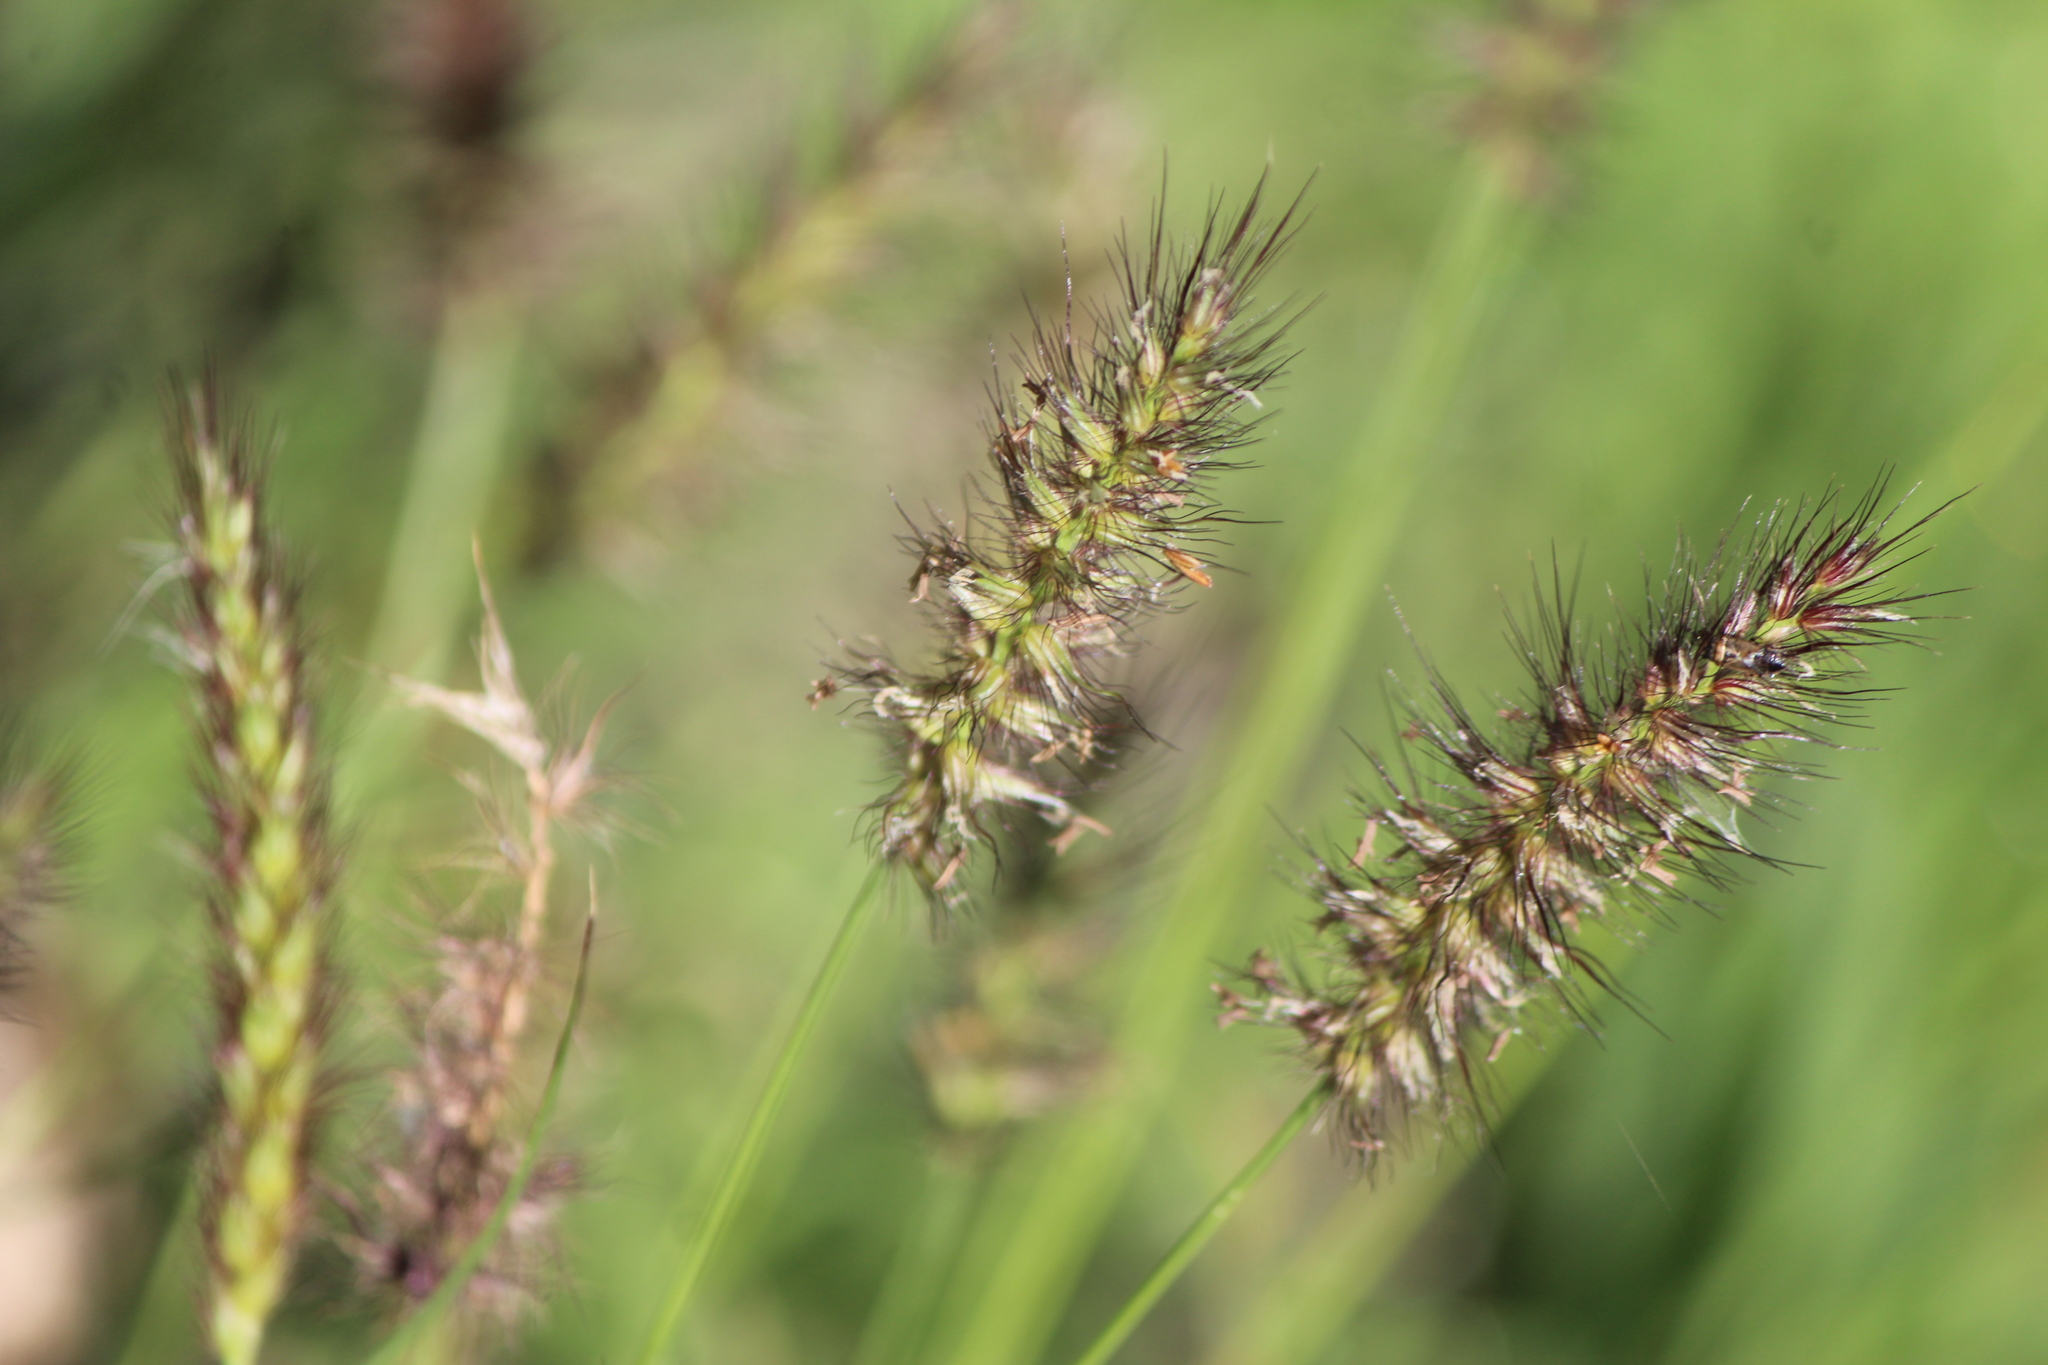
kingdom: Plantae
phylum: Tracheophyta
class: Liliopsida
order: Poales
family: Poaceae
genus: Cenchrus
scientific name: Cenchrus ciliaris
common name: Buffelgrass
